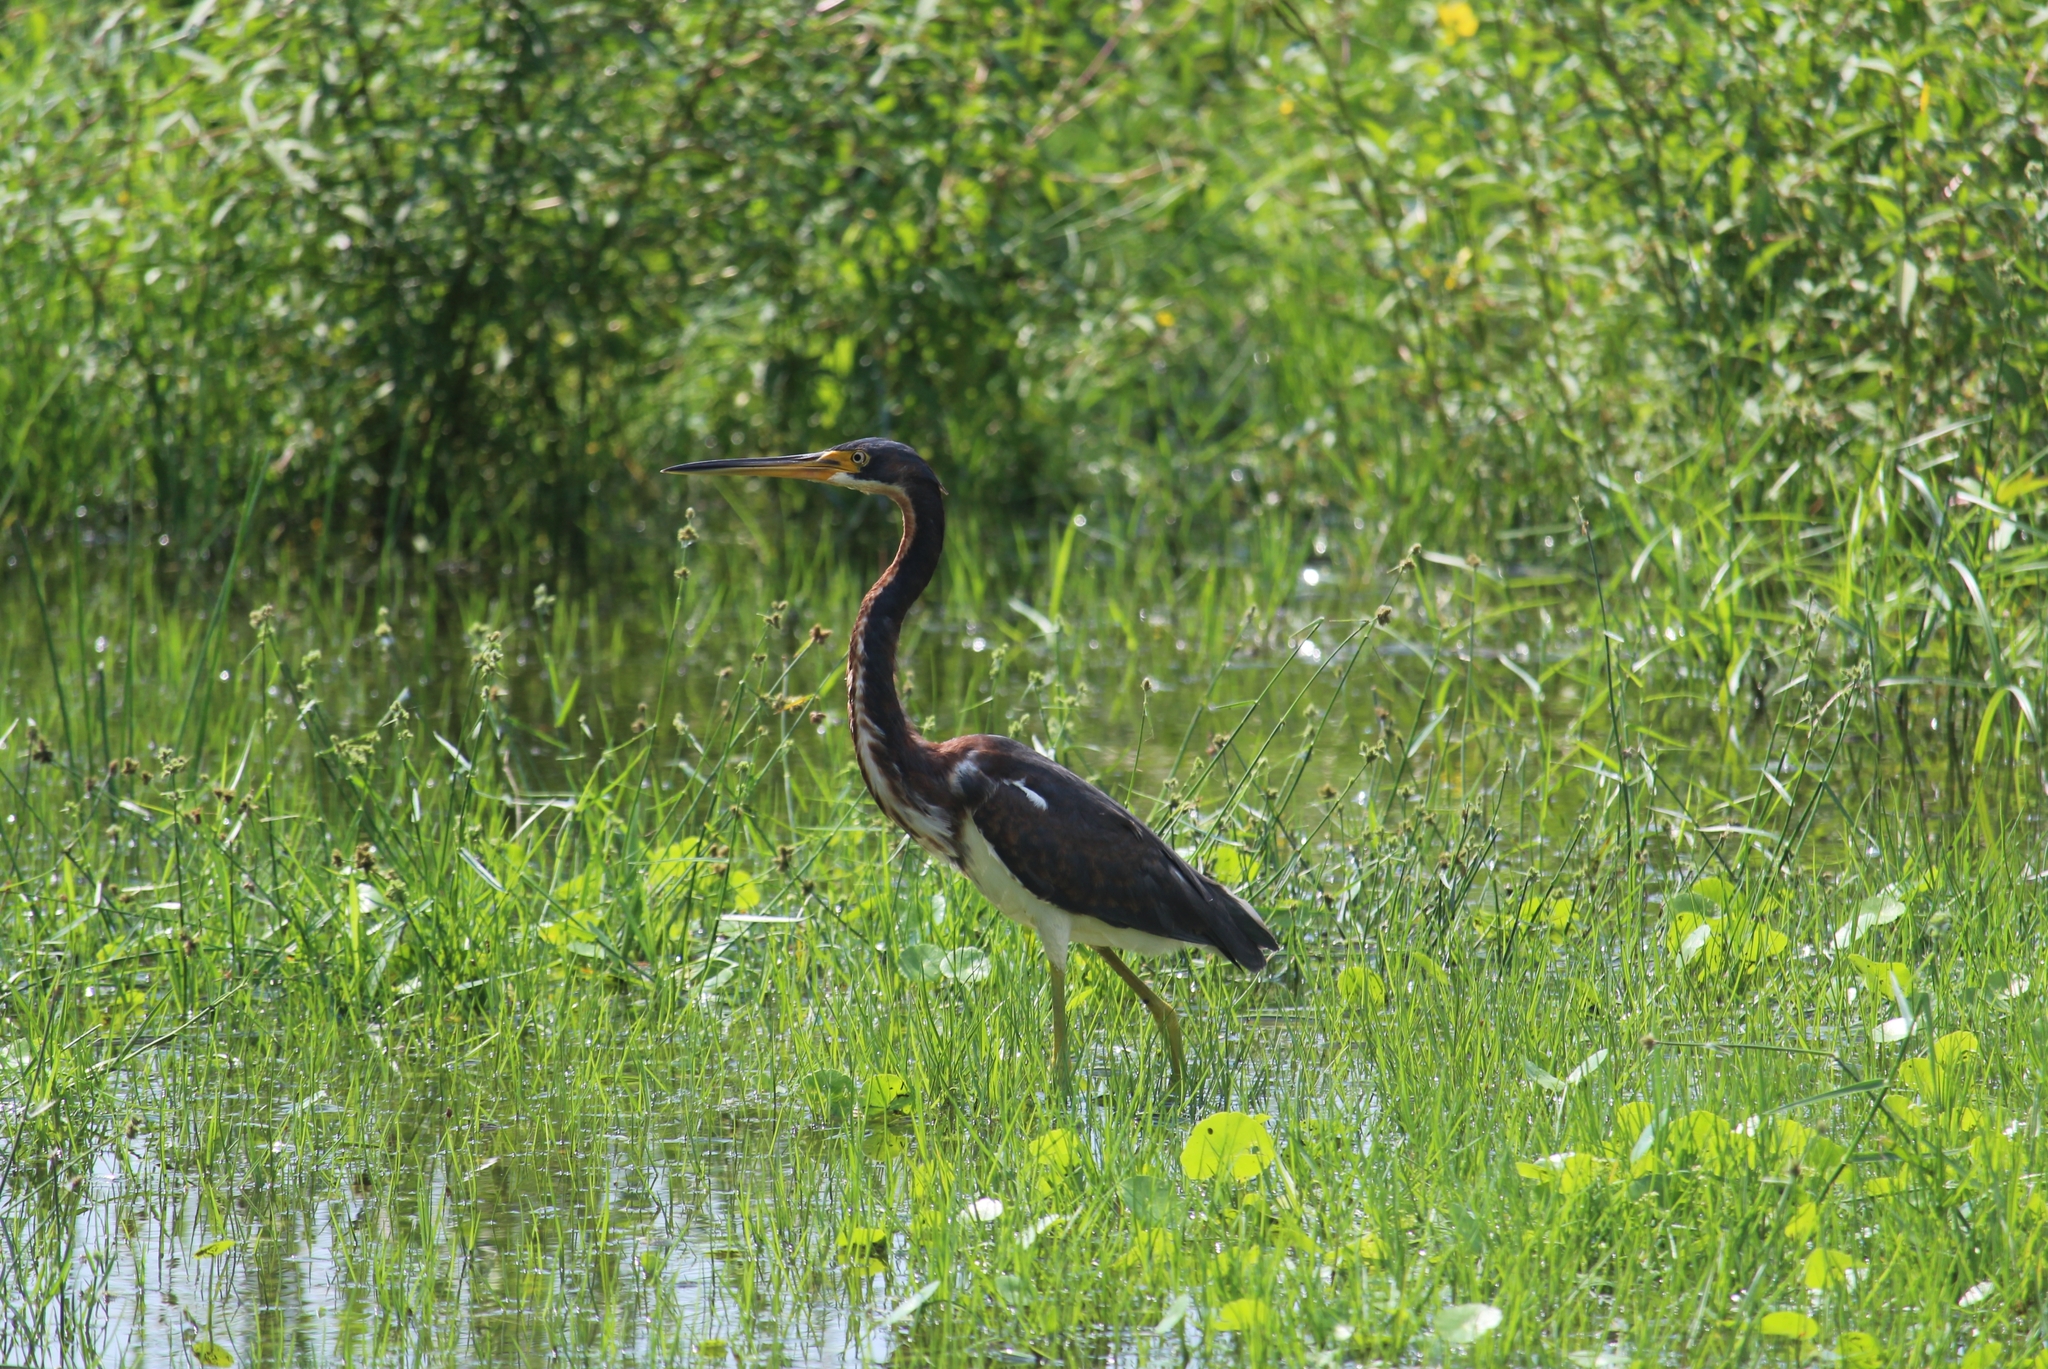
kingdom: Animalia
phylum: Chordata
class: Aves
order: Pelecaniformes
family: Ardeidae
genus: Egretta
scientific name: Egretta tricolor
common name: Tricolored heron
